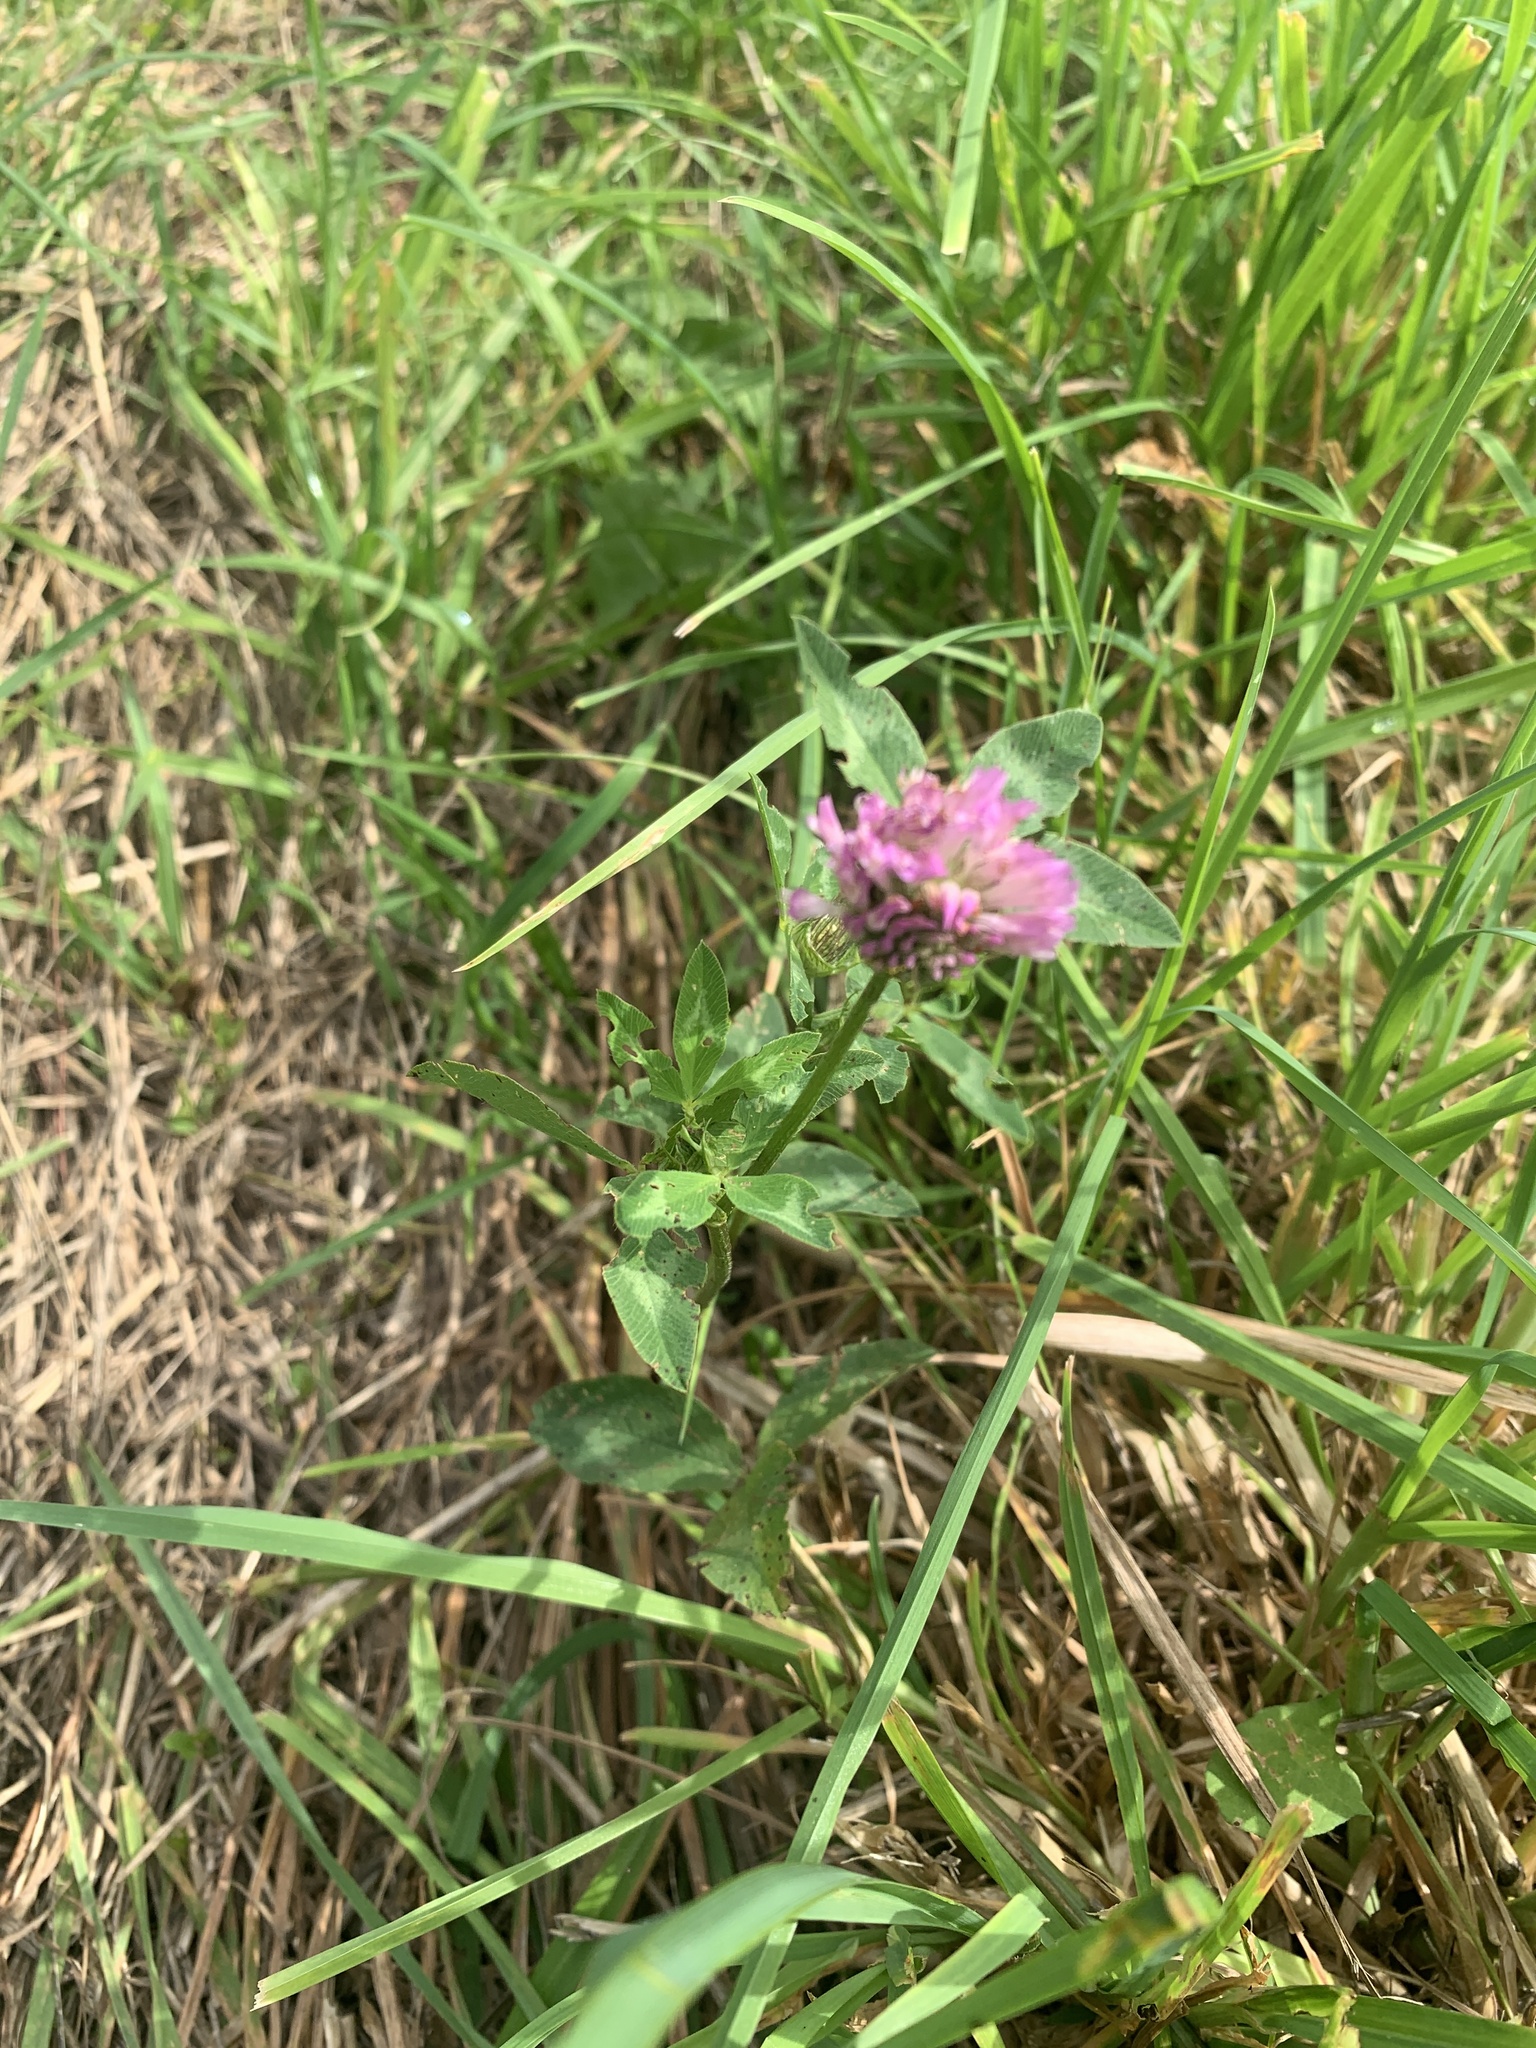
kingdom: Plantae
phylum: Tracheophyta
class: Magnoliopsida
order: Fabales
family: Fabaceae
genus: Trifolium
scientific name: Trifolium pratense
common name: Red clover
